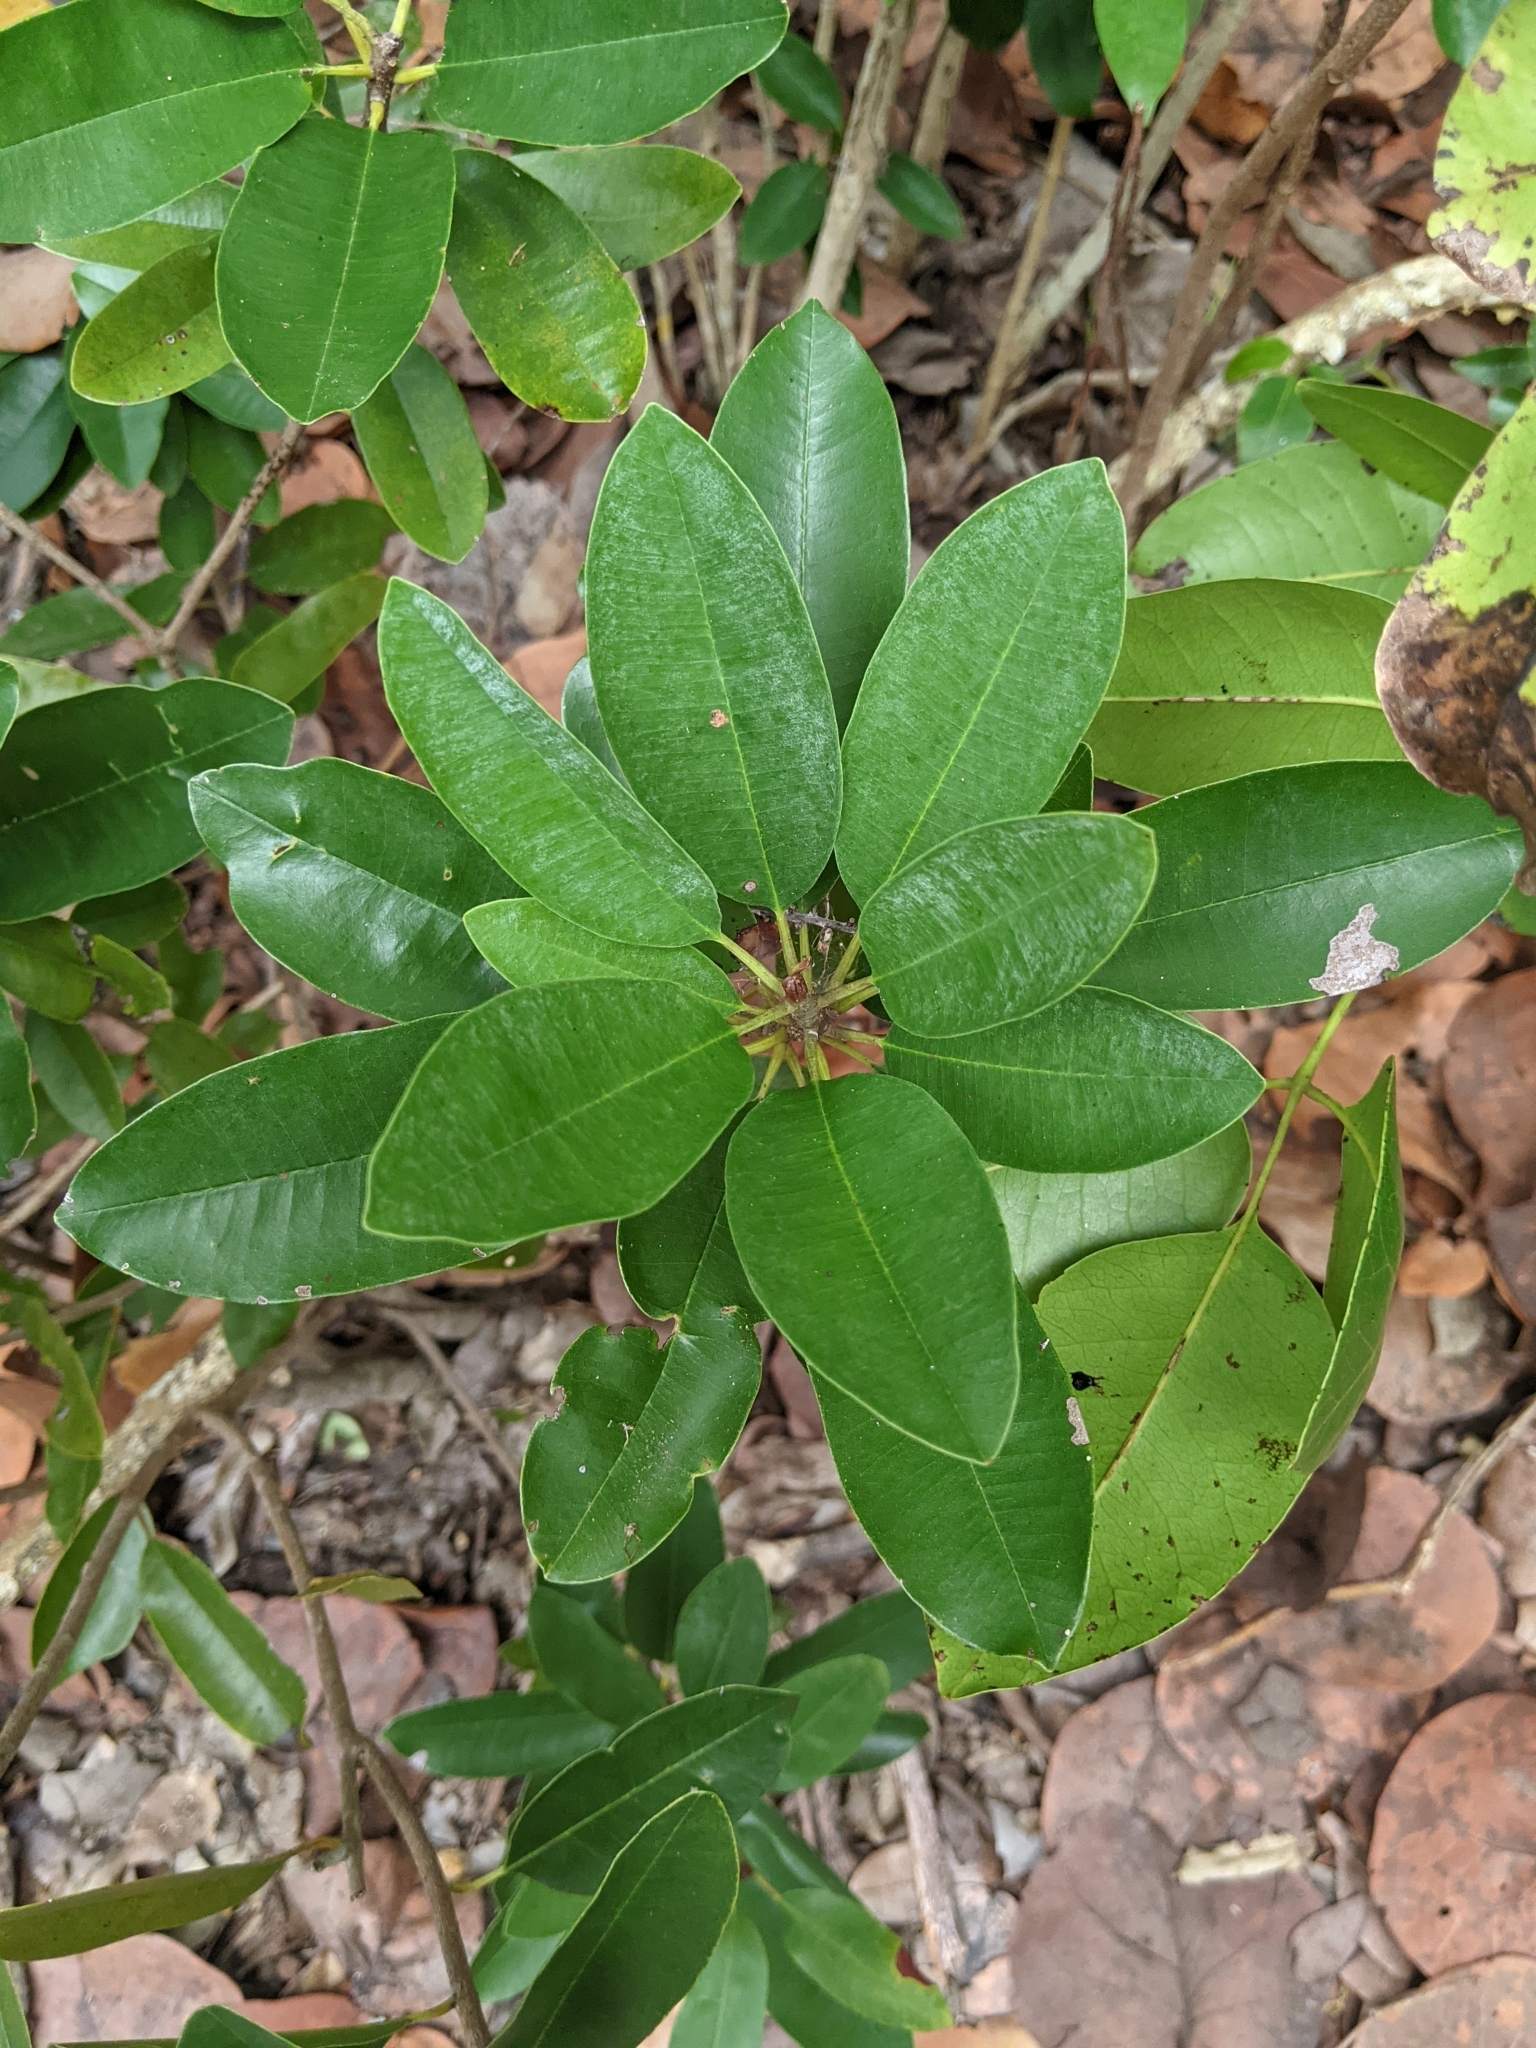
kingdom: Plantae
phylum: Tracheophyta
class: Magnoliopsida
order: Ericales
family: Sapotaceae
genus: Manilkara
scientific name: Manilkara jaimiqui
